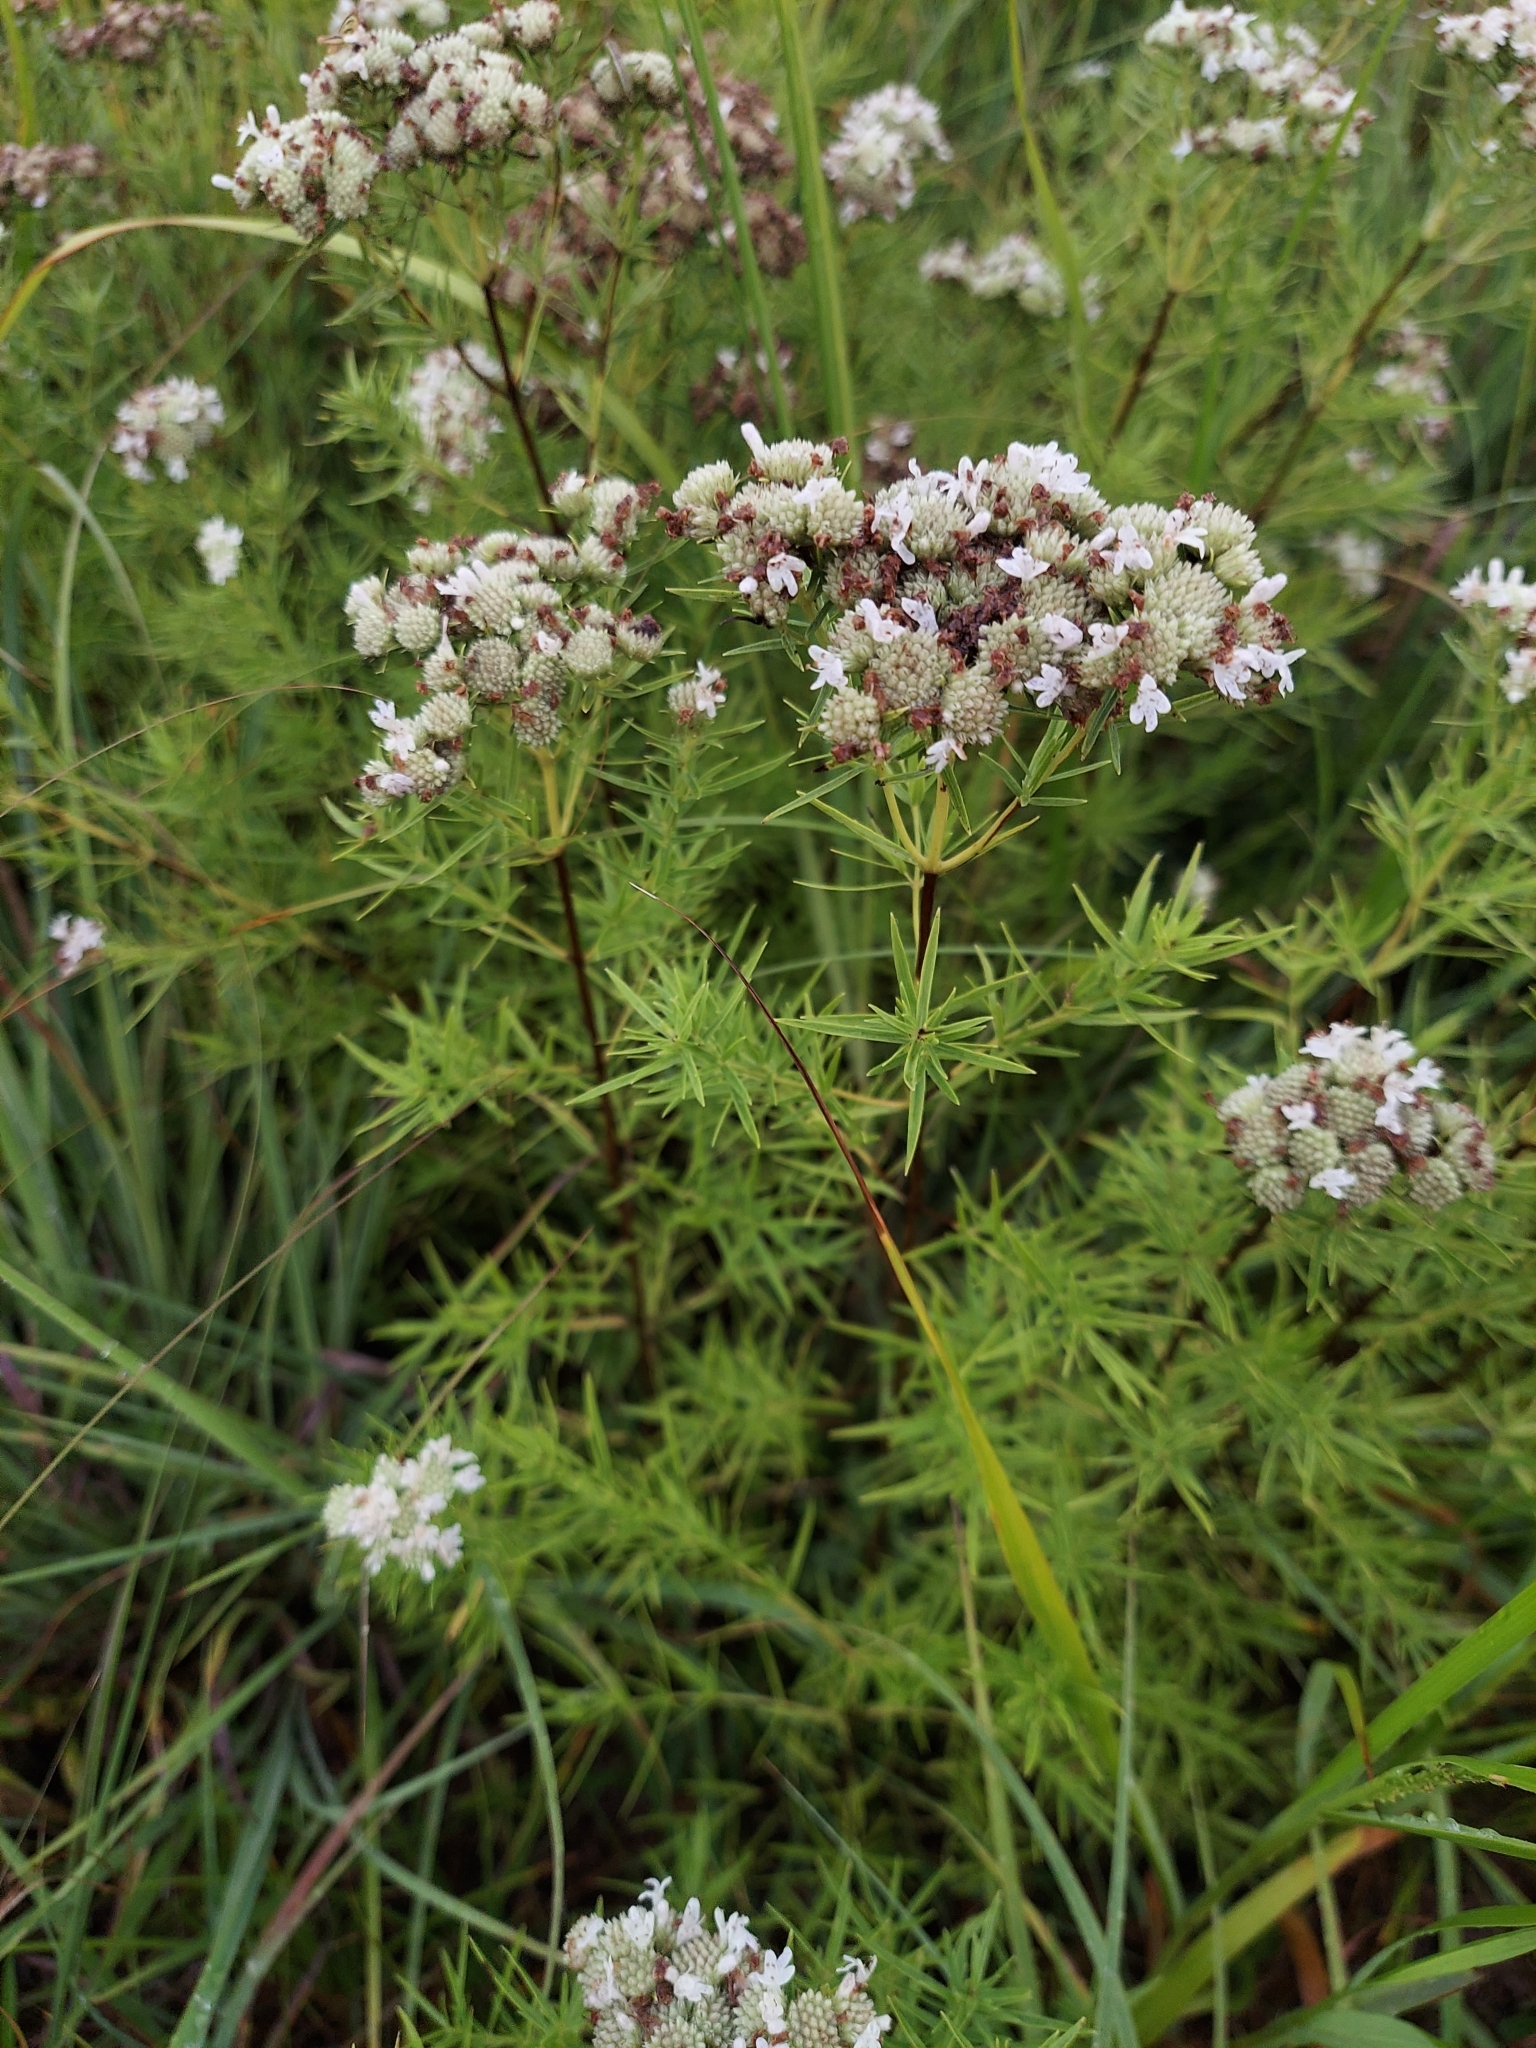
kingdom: Plantae
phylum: Tracheophyta
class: Magnoliopsida
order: Lamiales
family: Lamiaceae
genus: Pycnanthemum
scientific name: Pycnanthemum tenuifolium
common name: Narrow-leaf mountain-mint
